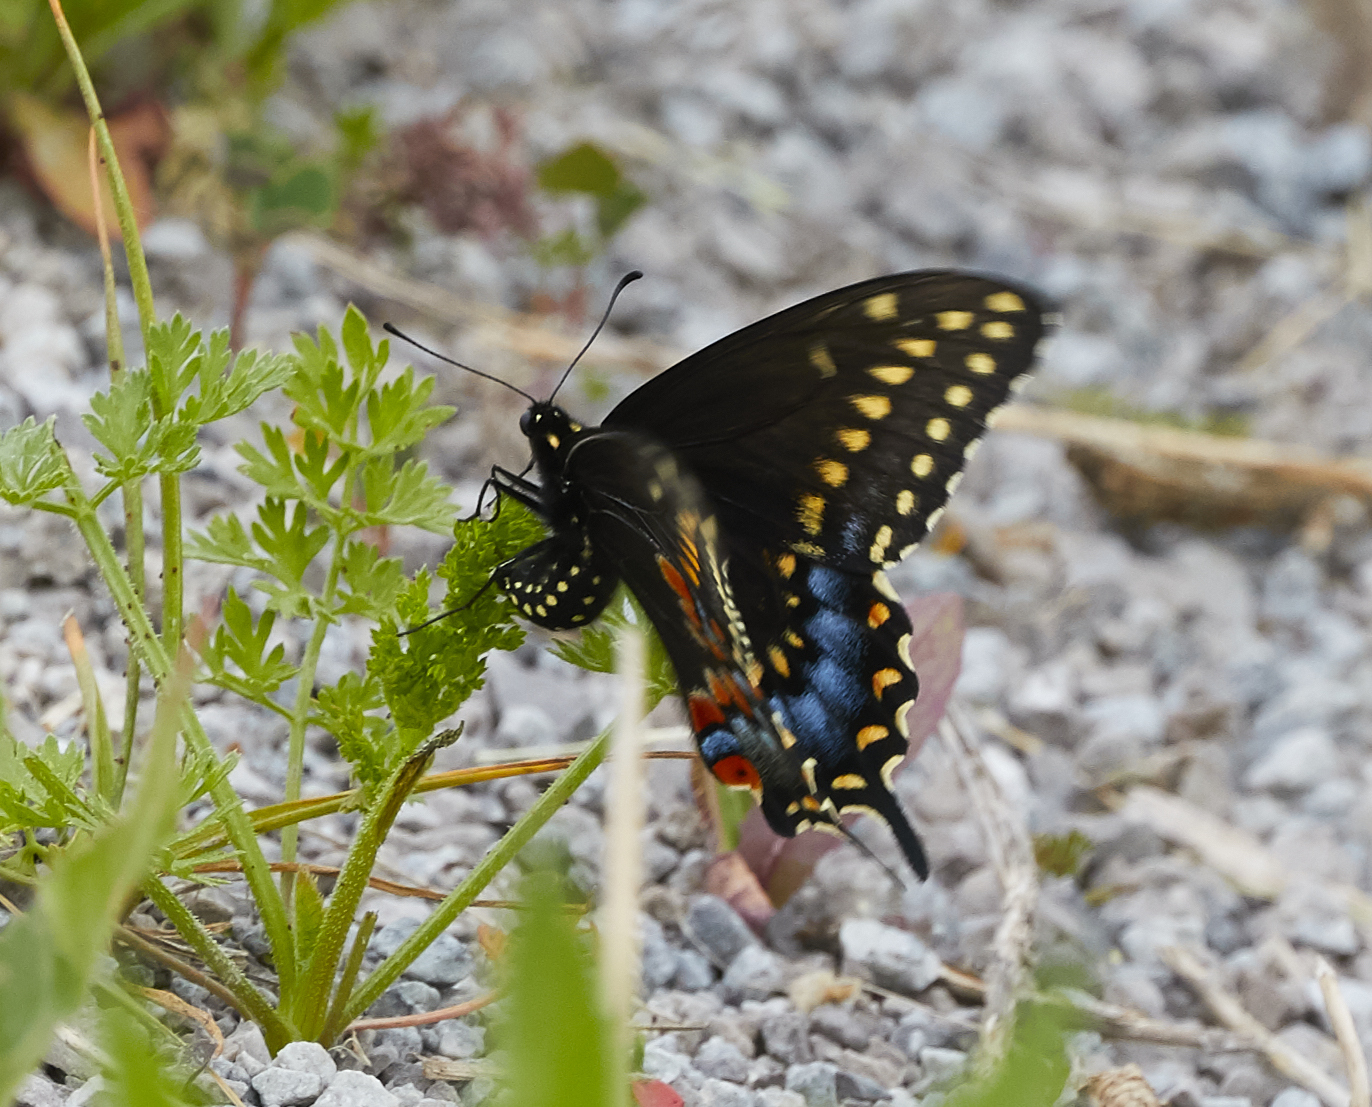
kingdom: Animalia
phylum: Arthropoda
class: Insecta
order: Lepidoptera
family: Papilionidae
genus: Papilio
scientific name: Papilio polyxenes
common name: Black swallowtail
